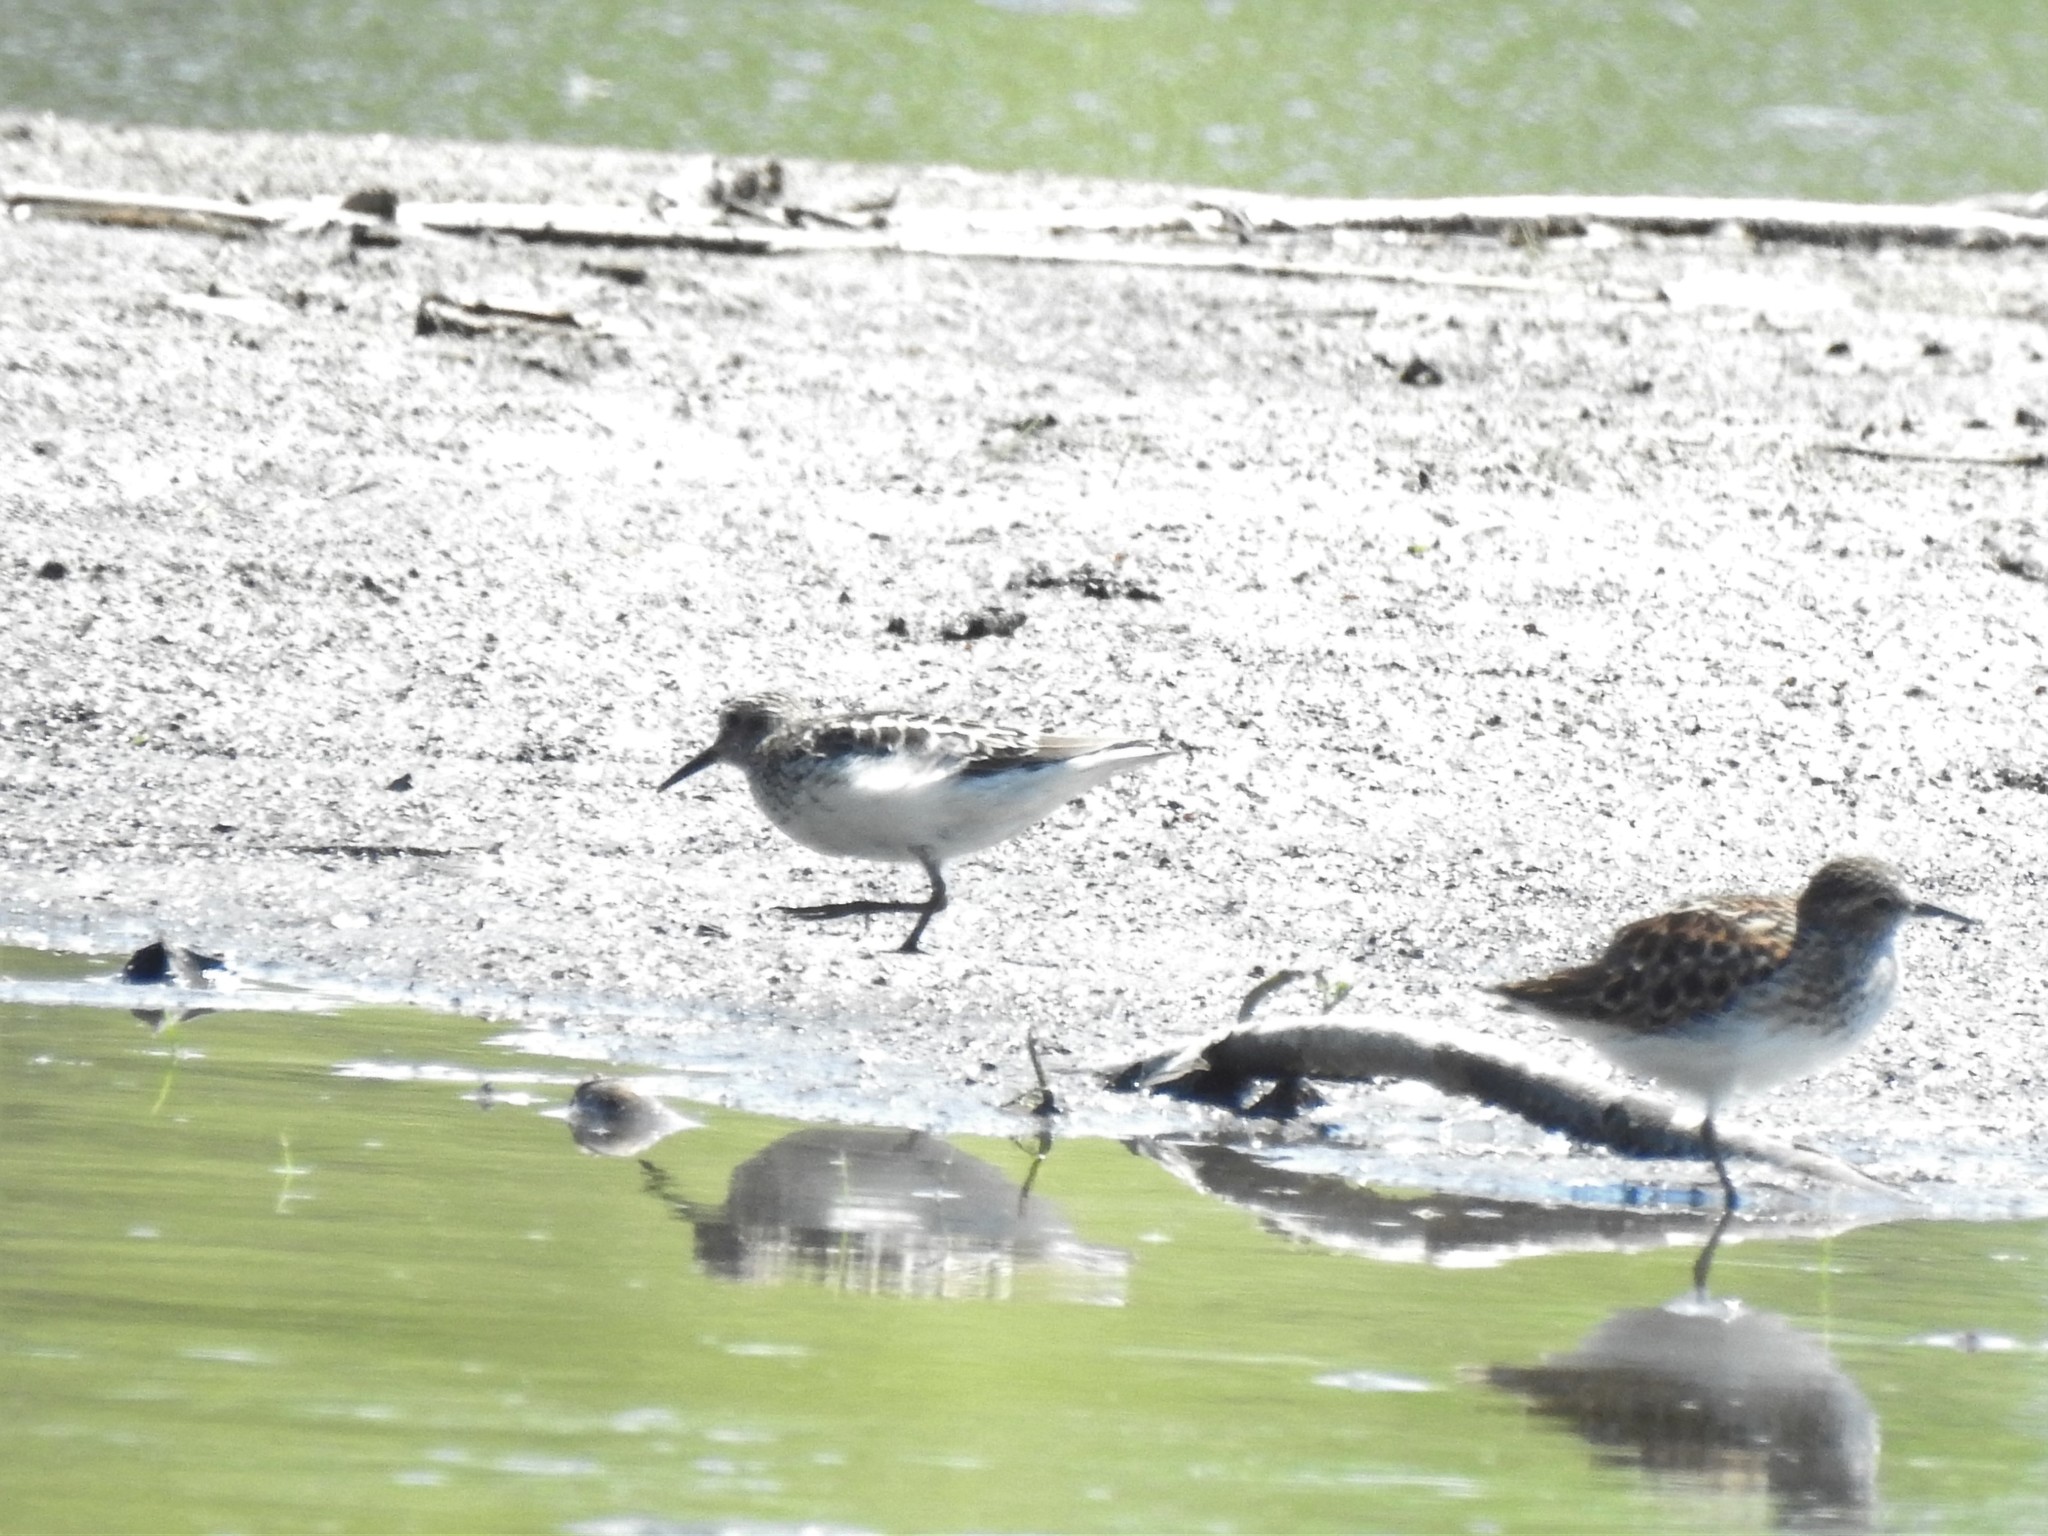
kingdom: Animalia
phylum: Chordata
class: Aves
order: Charadriiformes
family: Scolopacidae
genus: Calidris
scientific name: Calidris minutilla
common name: Least sandpiper
